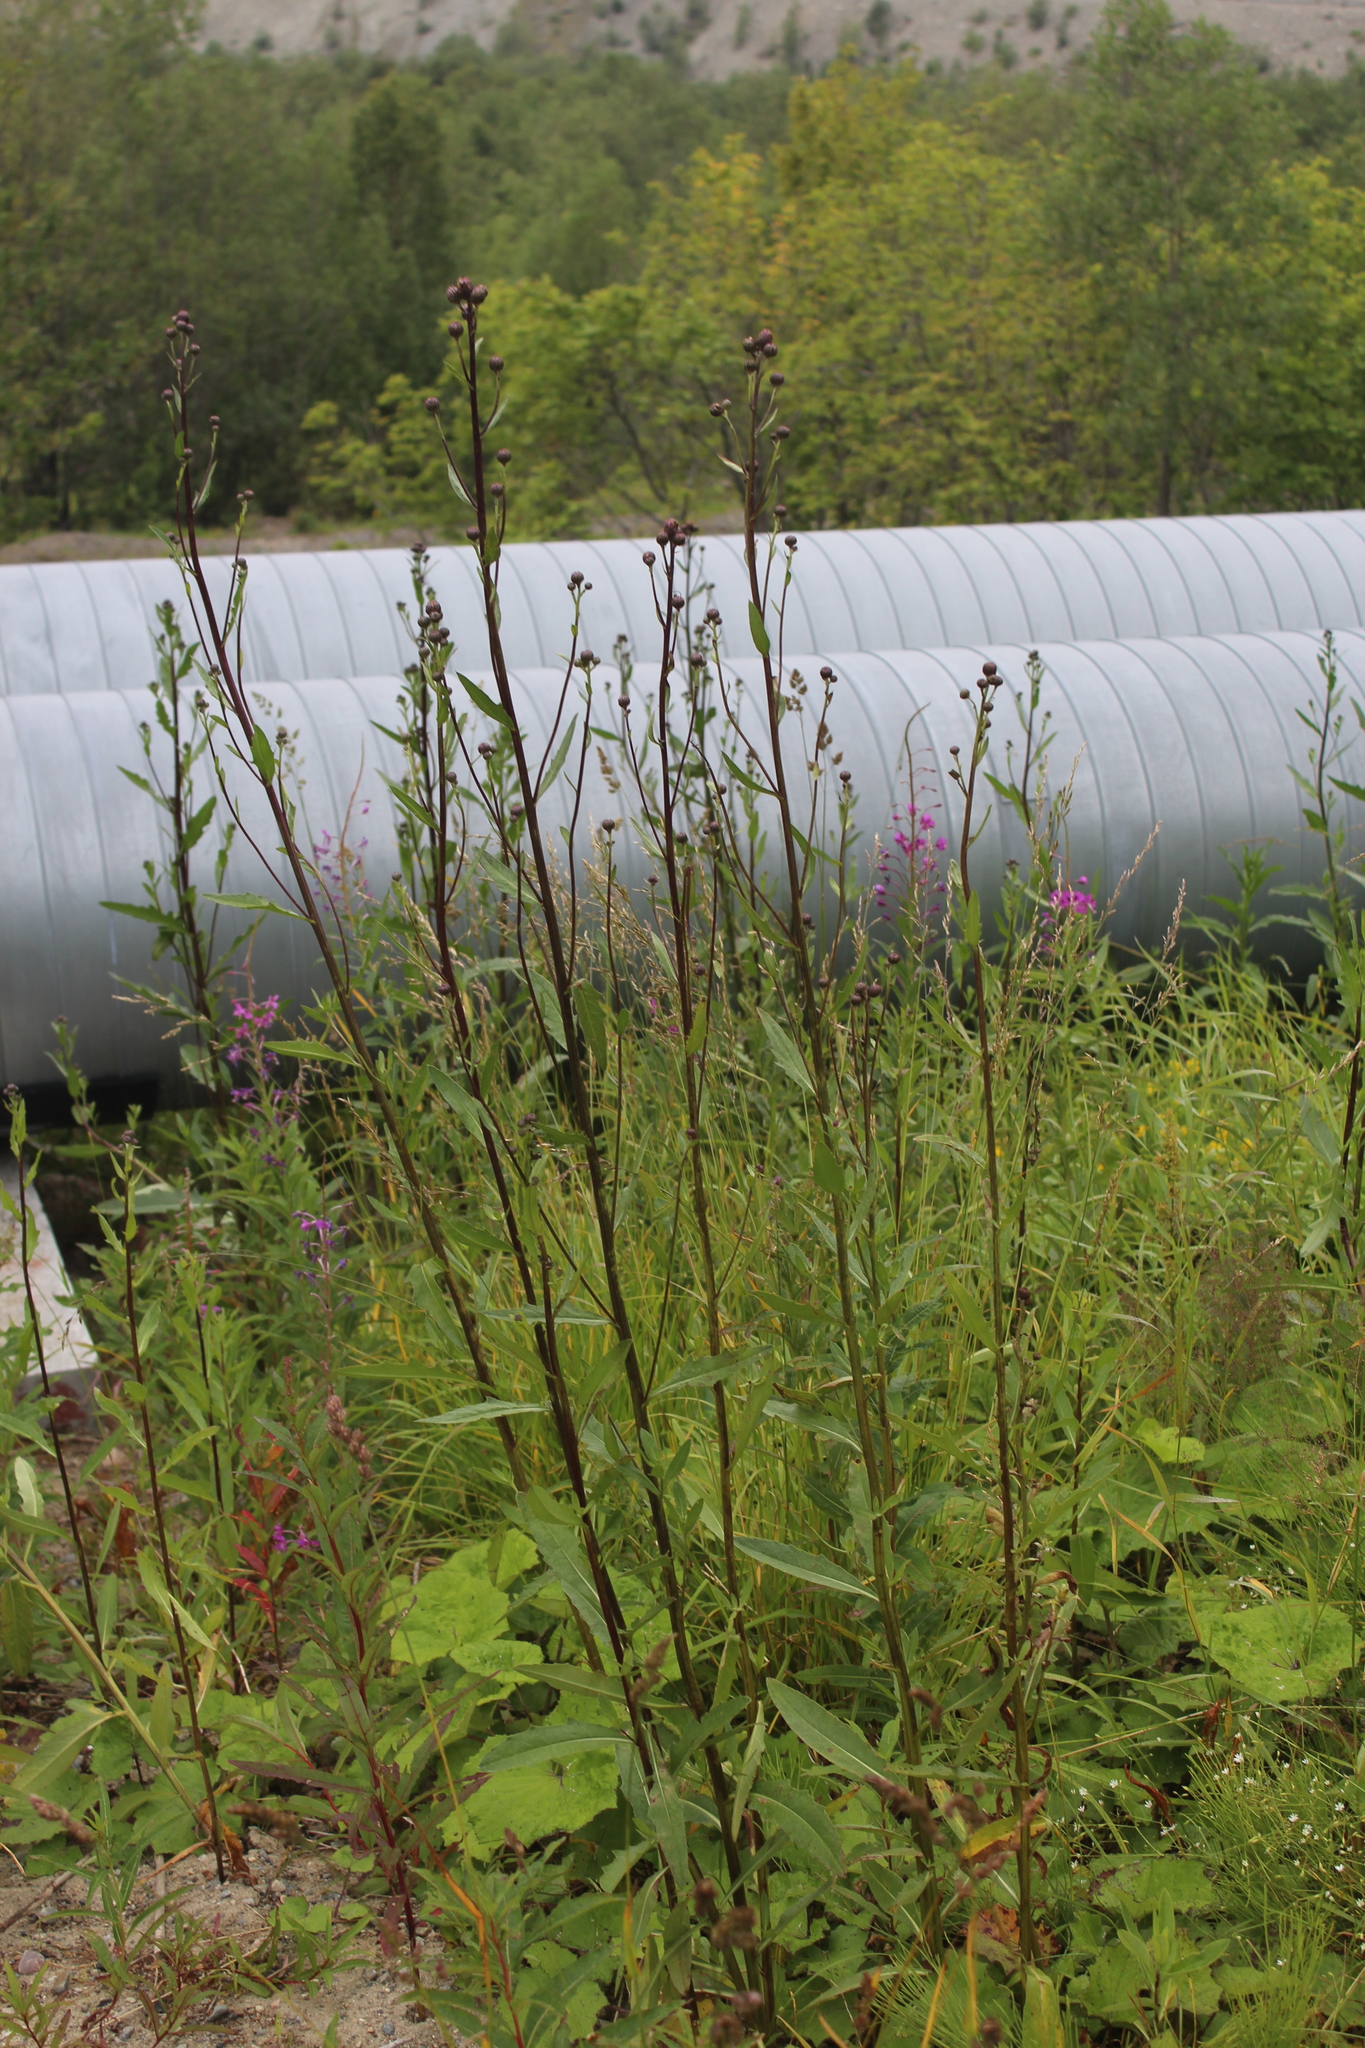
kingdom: Plantae
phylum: Tracheophyta
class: Magnoliopsida
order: Asterales
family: Asteraceae
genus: Cirsium
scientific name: Cirsium arvense
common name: Creeping thistle
